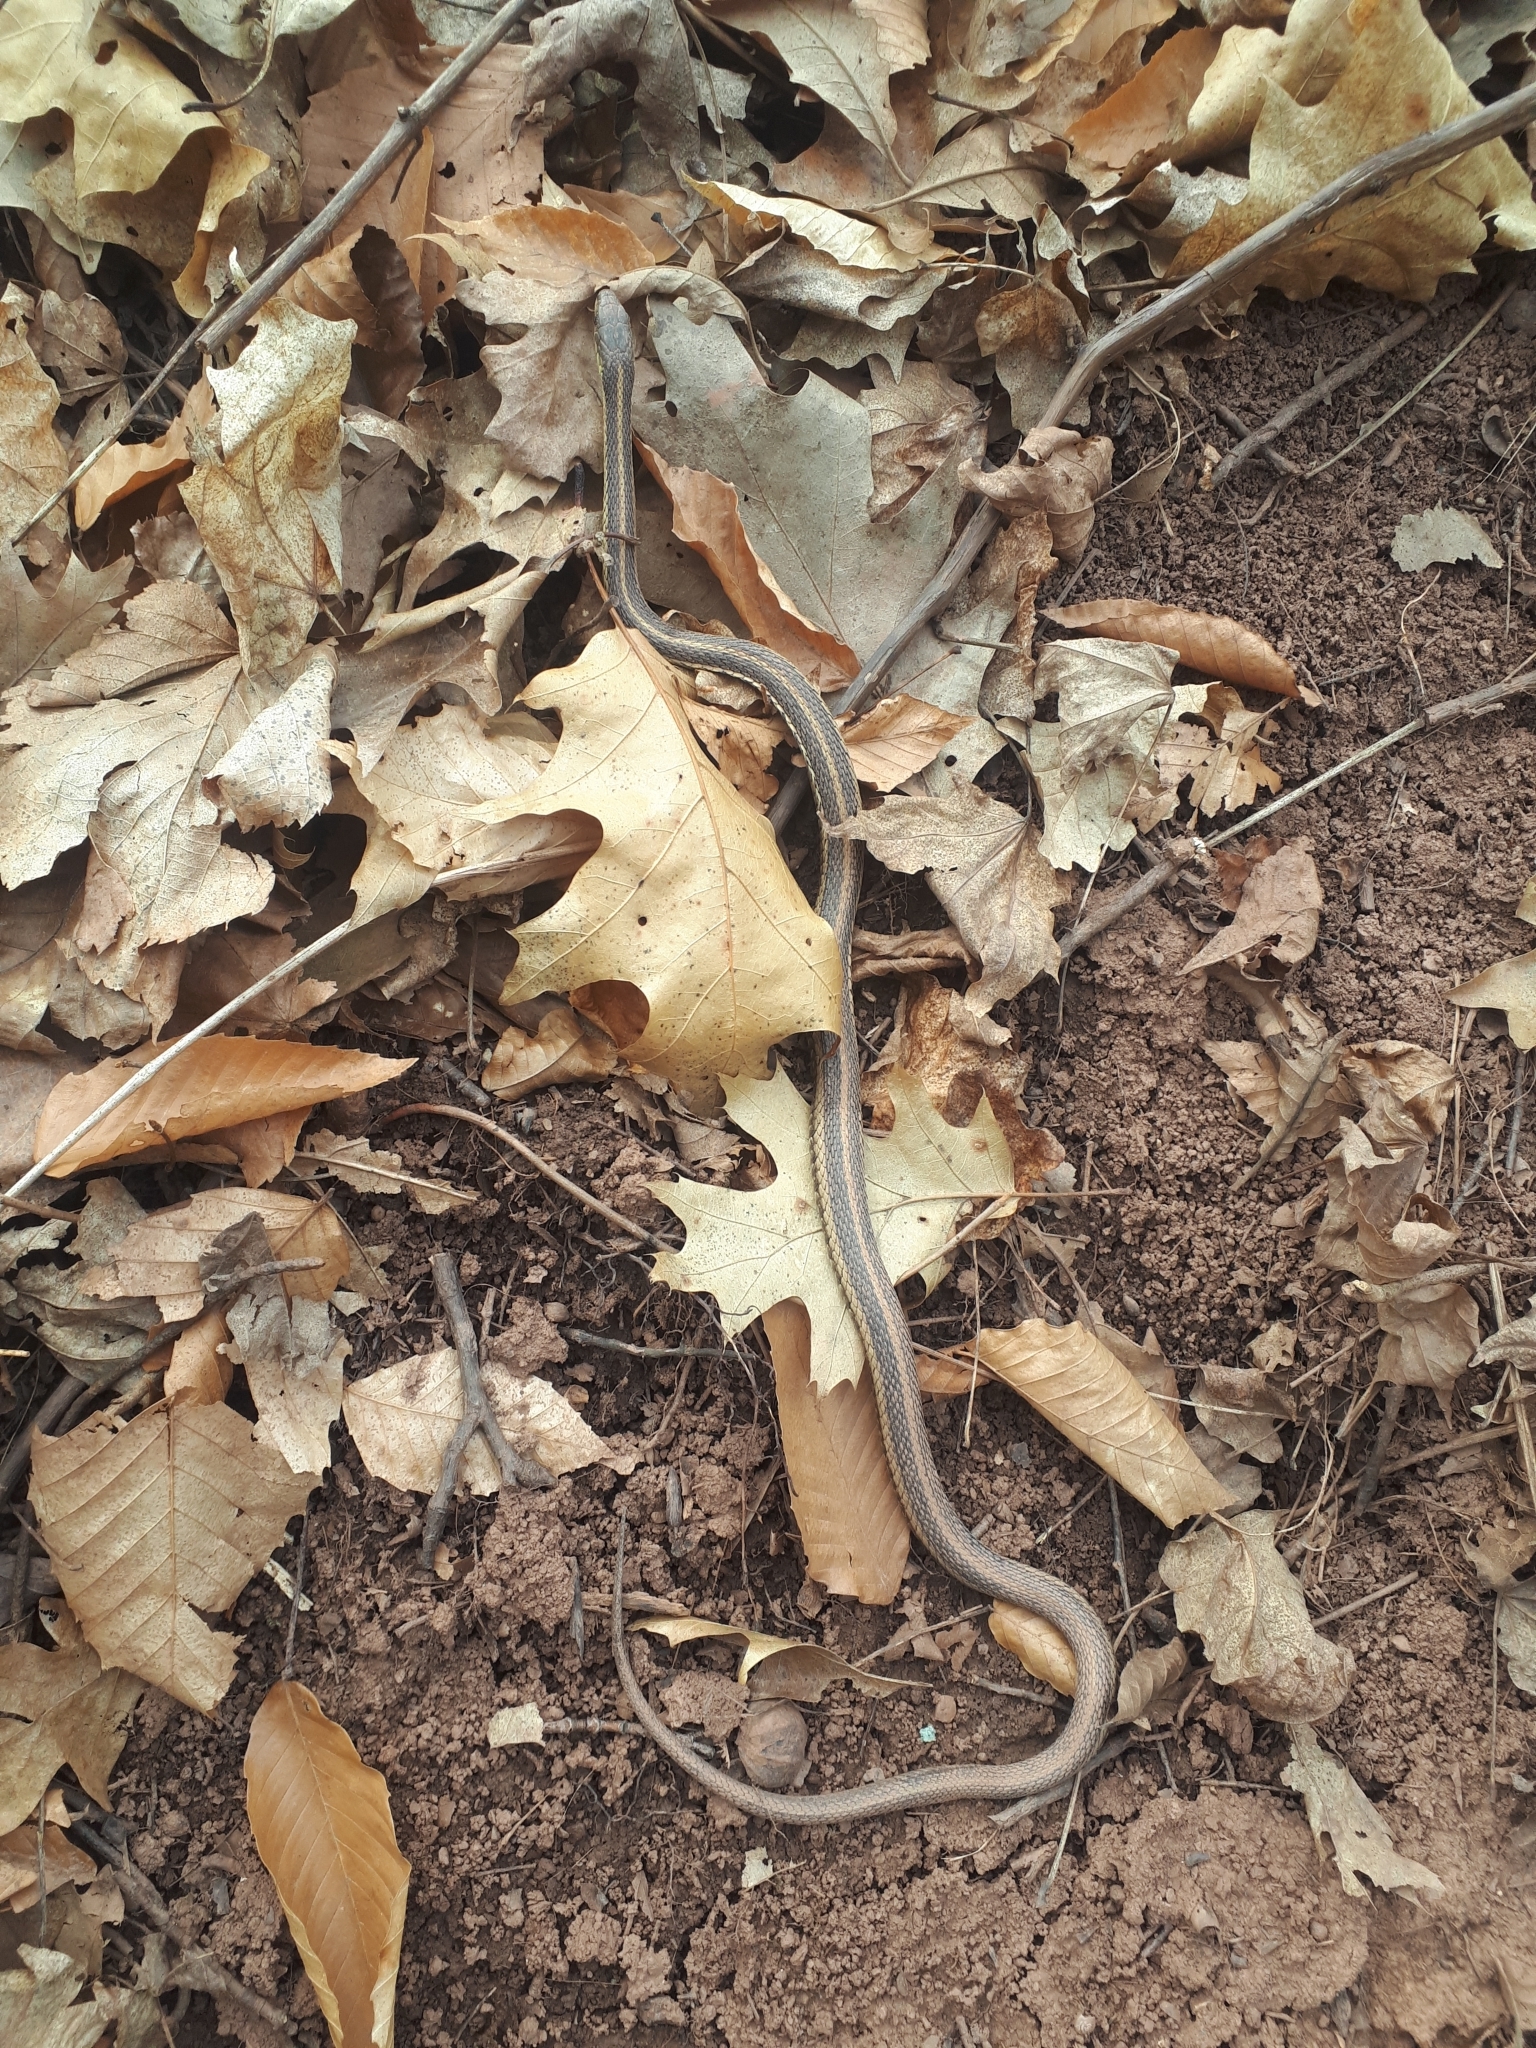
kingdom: Animalia
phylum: Chordata
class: Squamata
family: Colubridae
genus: Thamnophis
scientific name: Thamnophis sirtalis
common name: Common garter snake
